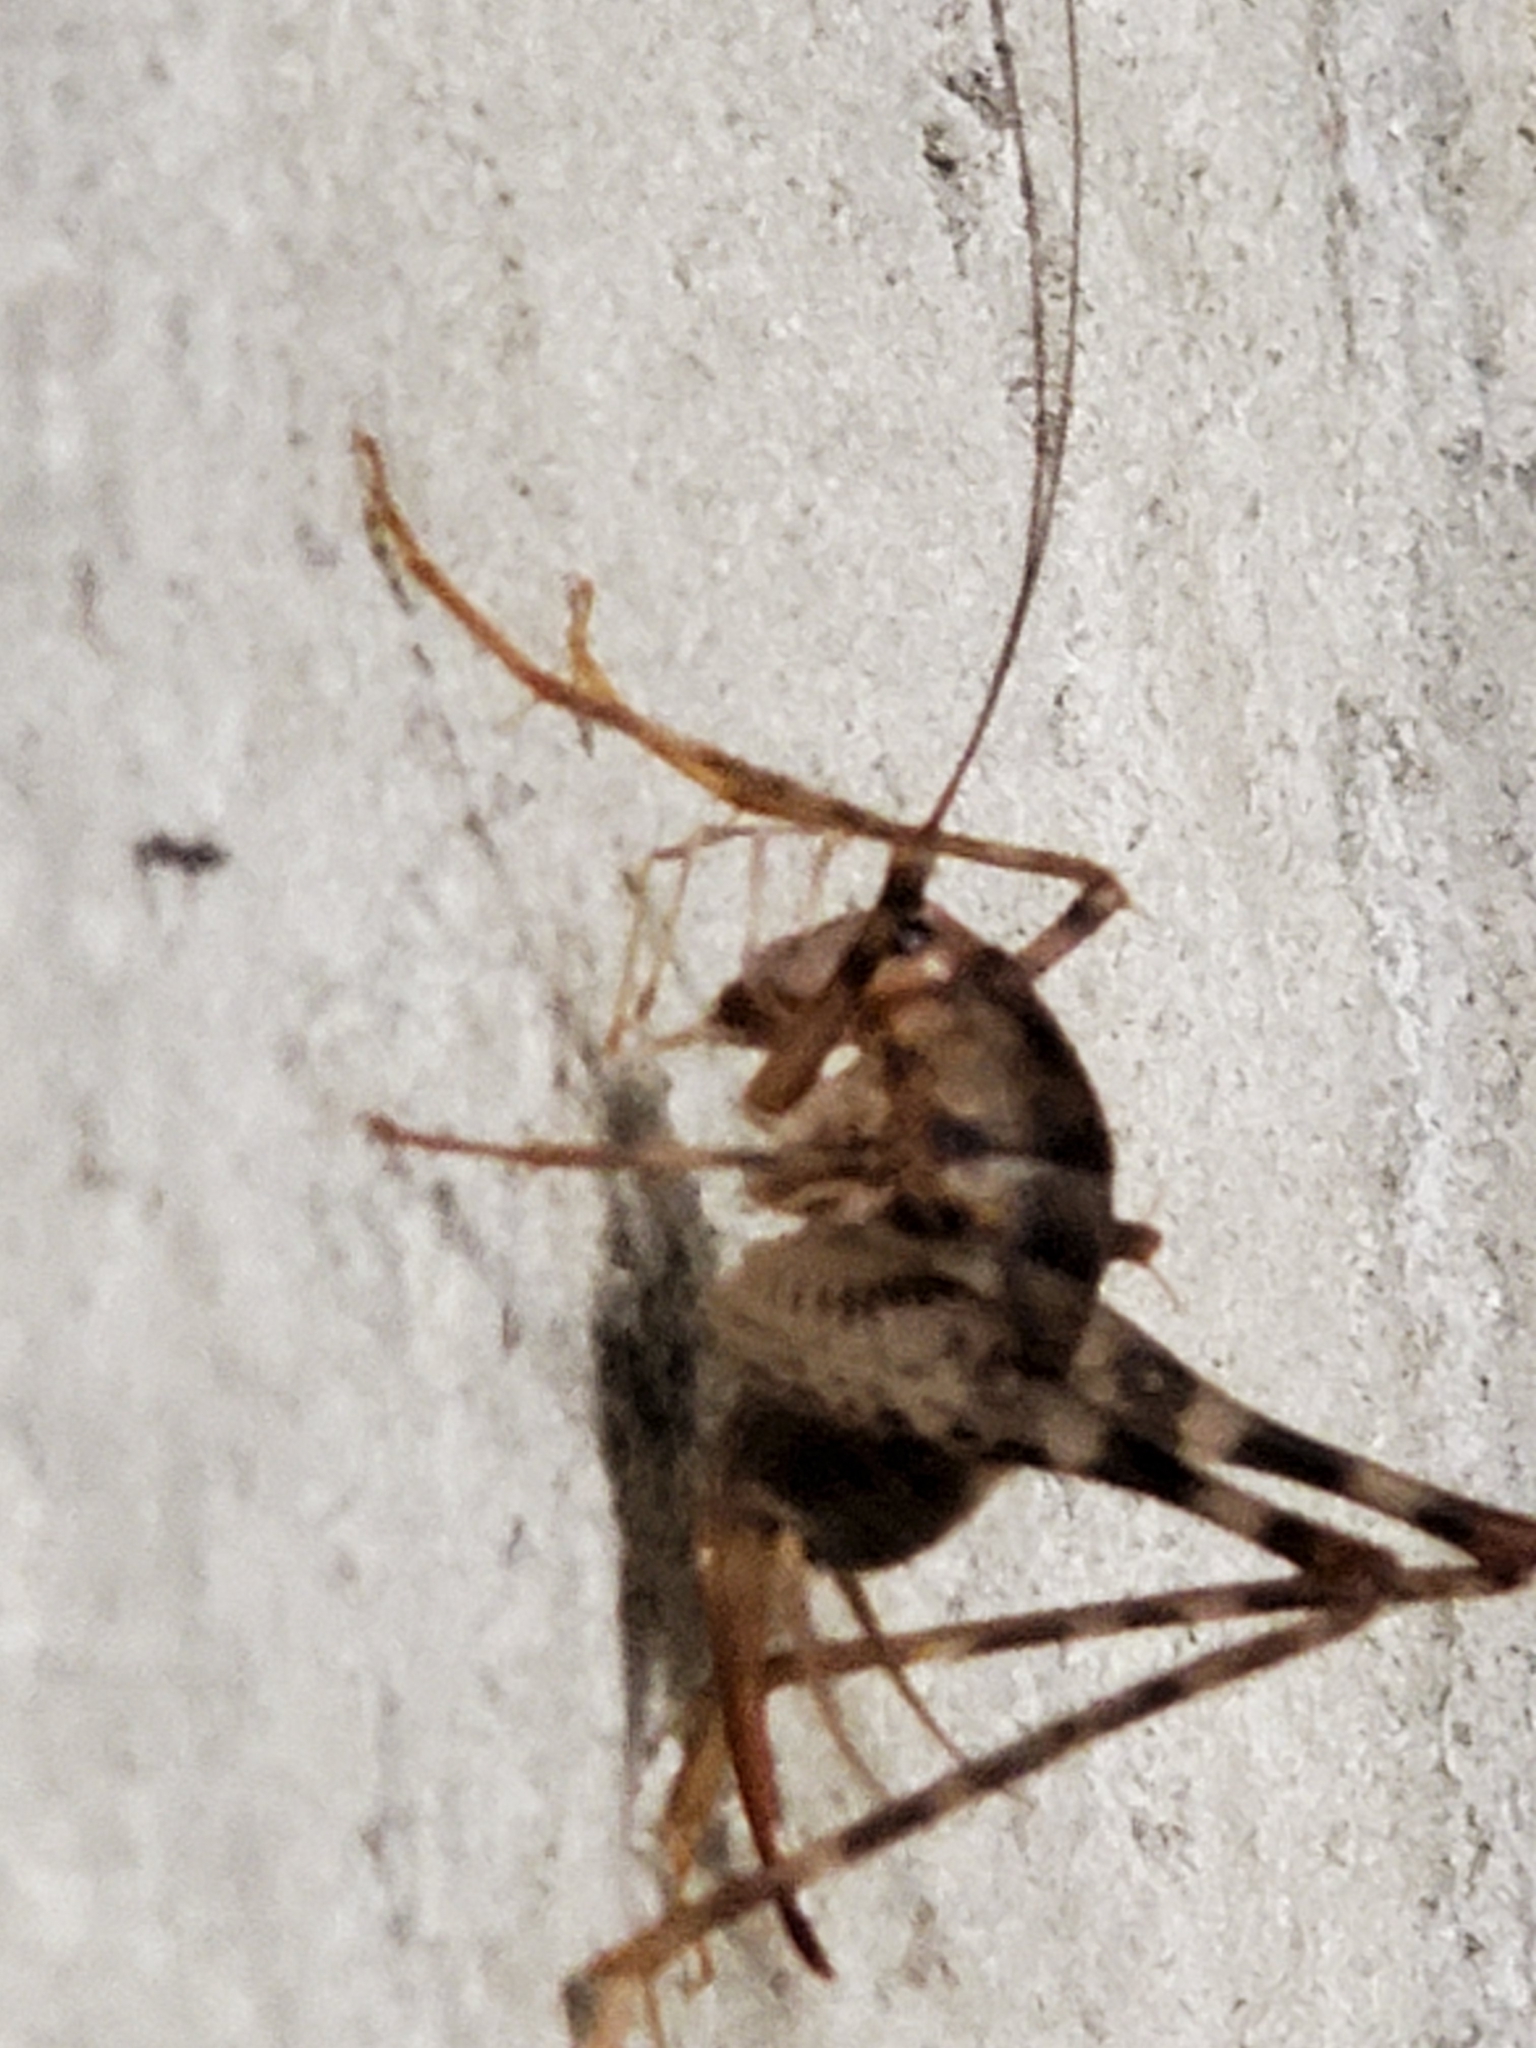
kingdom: Animalia
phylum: Arthropoda
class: Insecta
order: Orthoptera
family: Rhaphidophoridae
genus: Tachycines
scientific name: Tachycines asynamorus
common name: Greenhouse camel cricket
